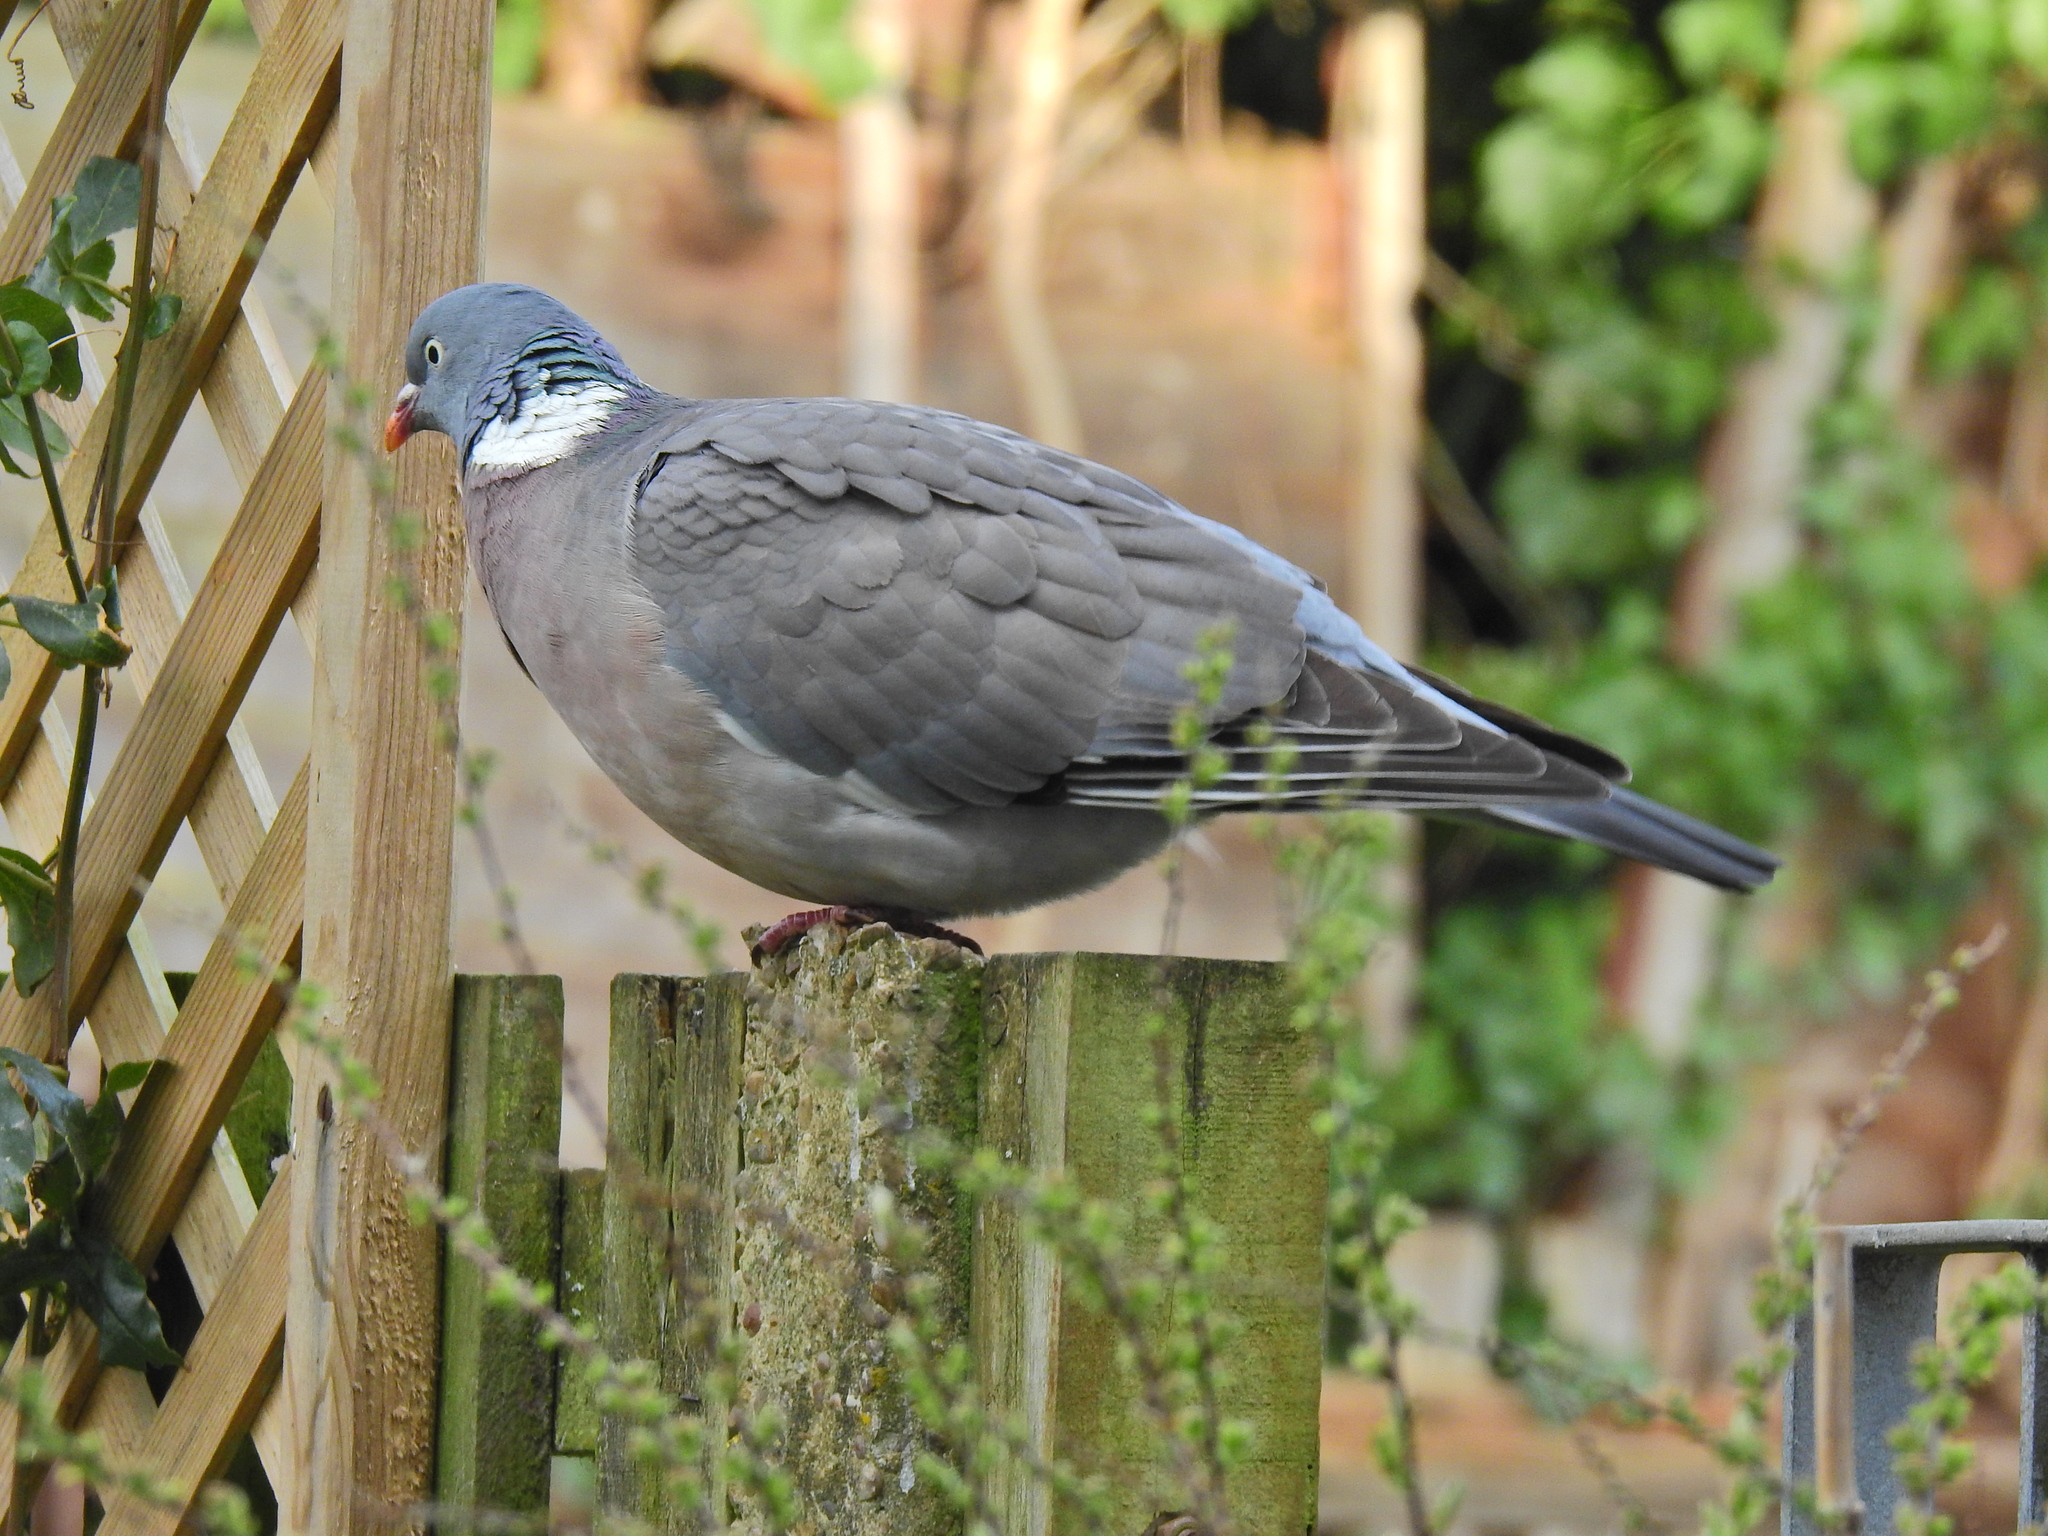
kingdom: Animalia
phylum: Chordata
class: Aves
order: Columbiformes
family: Columbidae
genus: Columba
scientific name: Columba palumbus
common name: Common wood pigeon
